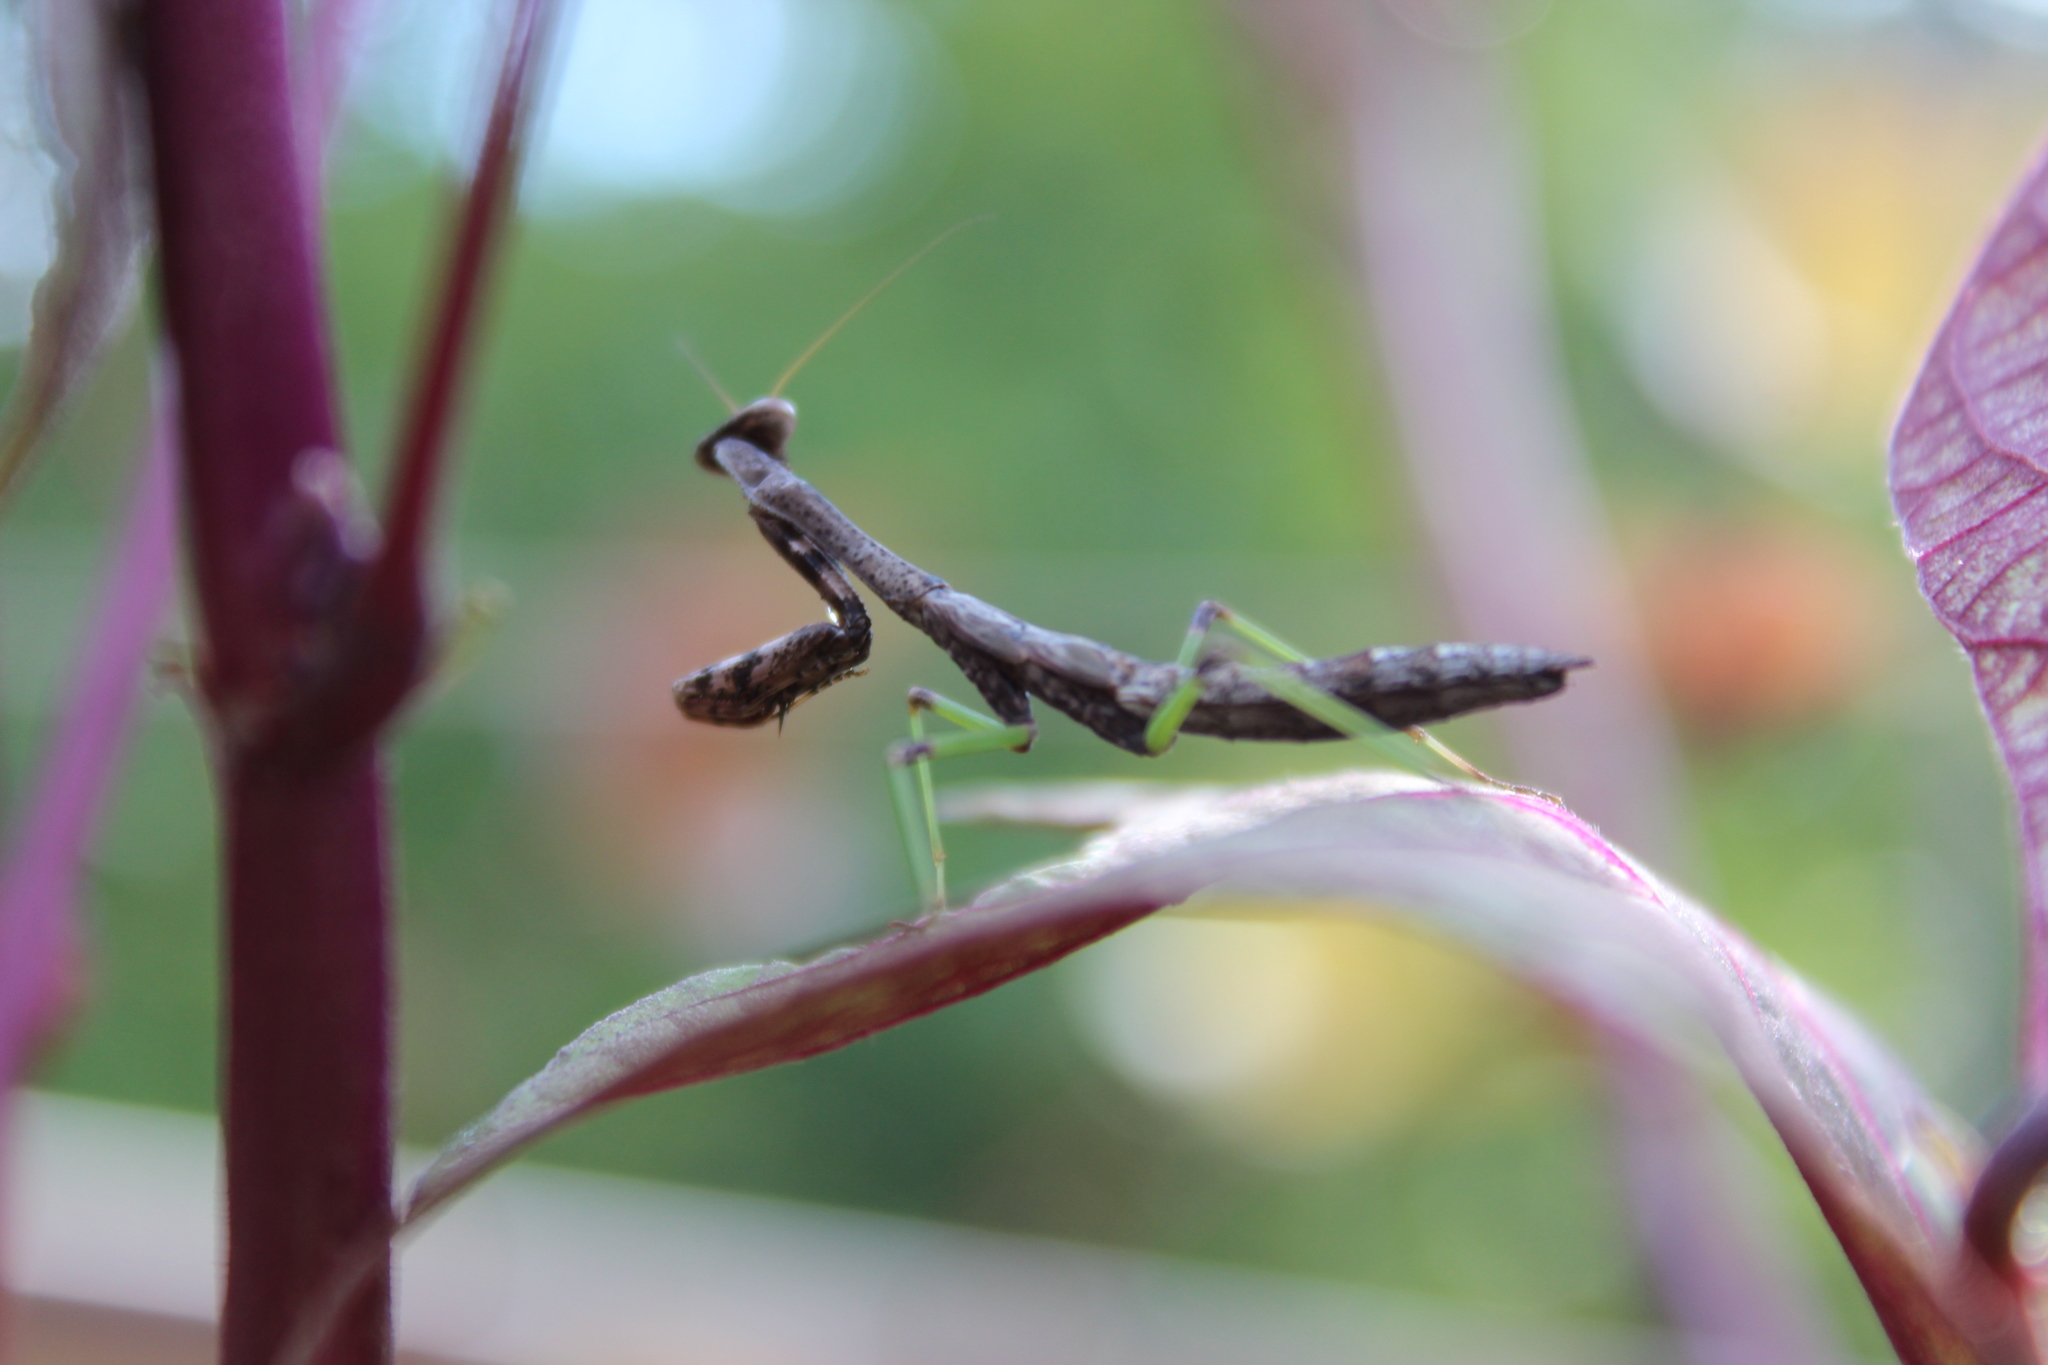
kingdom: Animalia
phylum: Arthropoda
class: Insecta
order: Mantodea
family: Mantidae
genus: Stagmomantis
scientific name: Stagmomantis carolina
